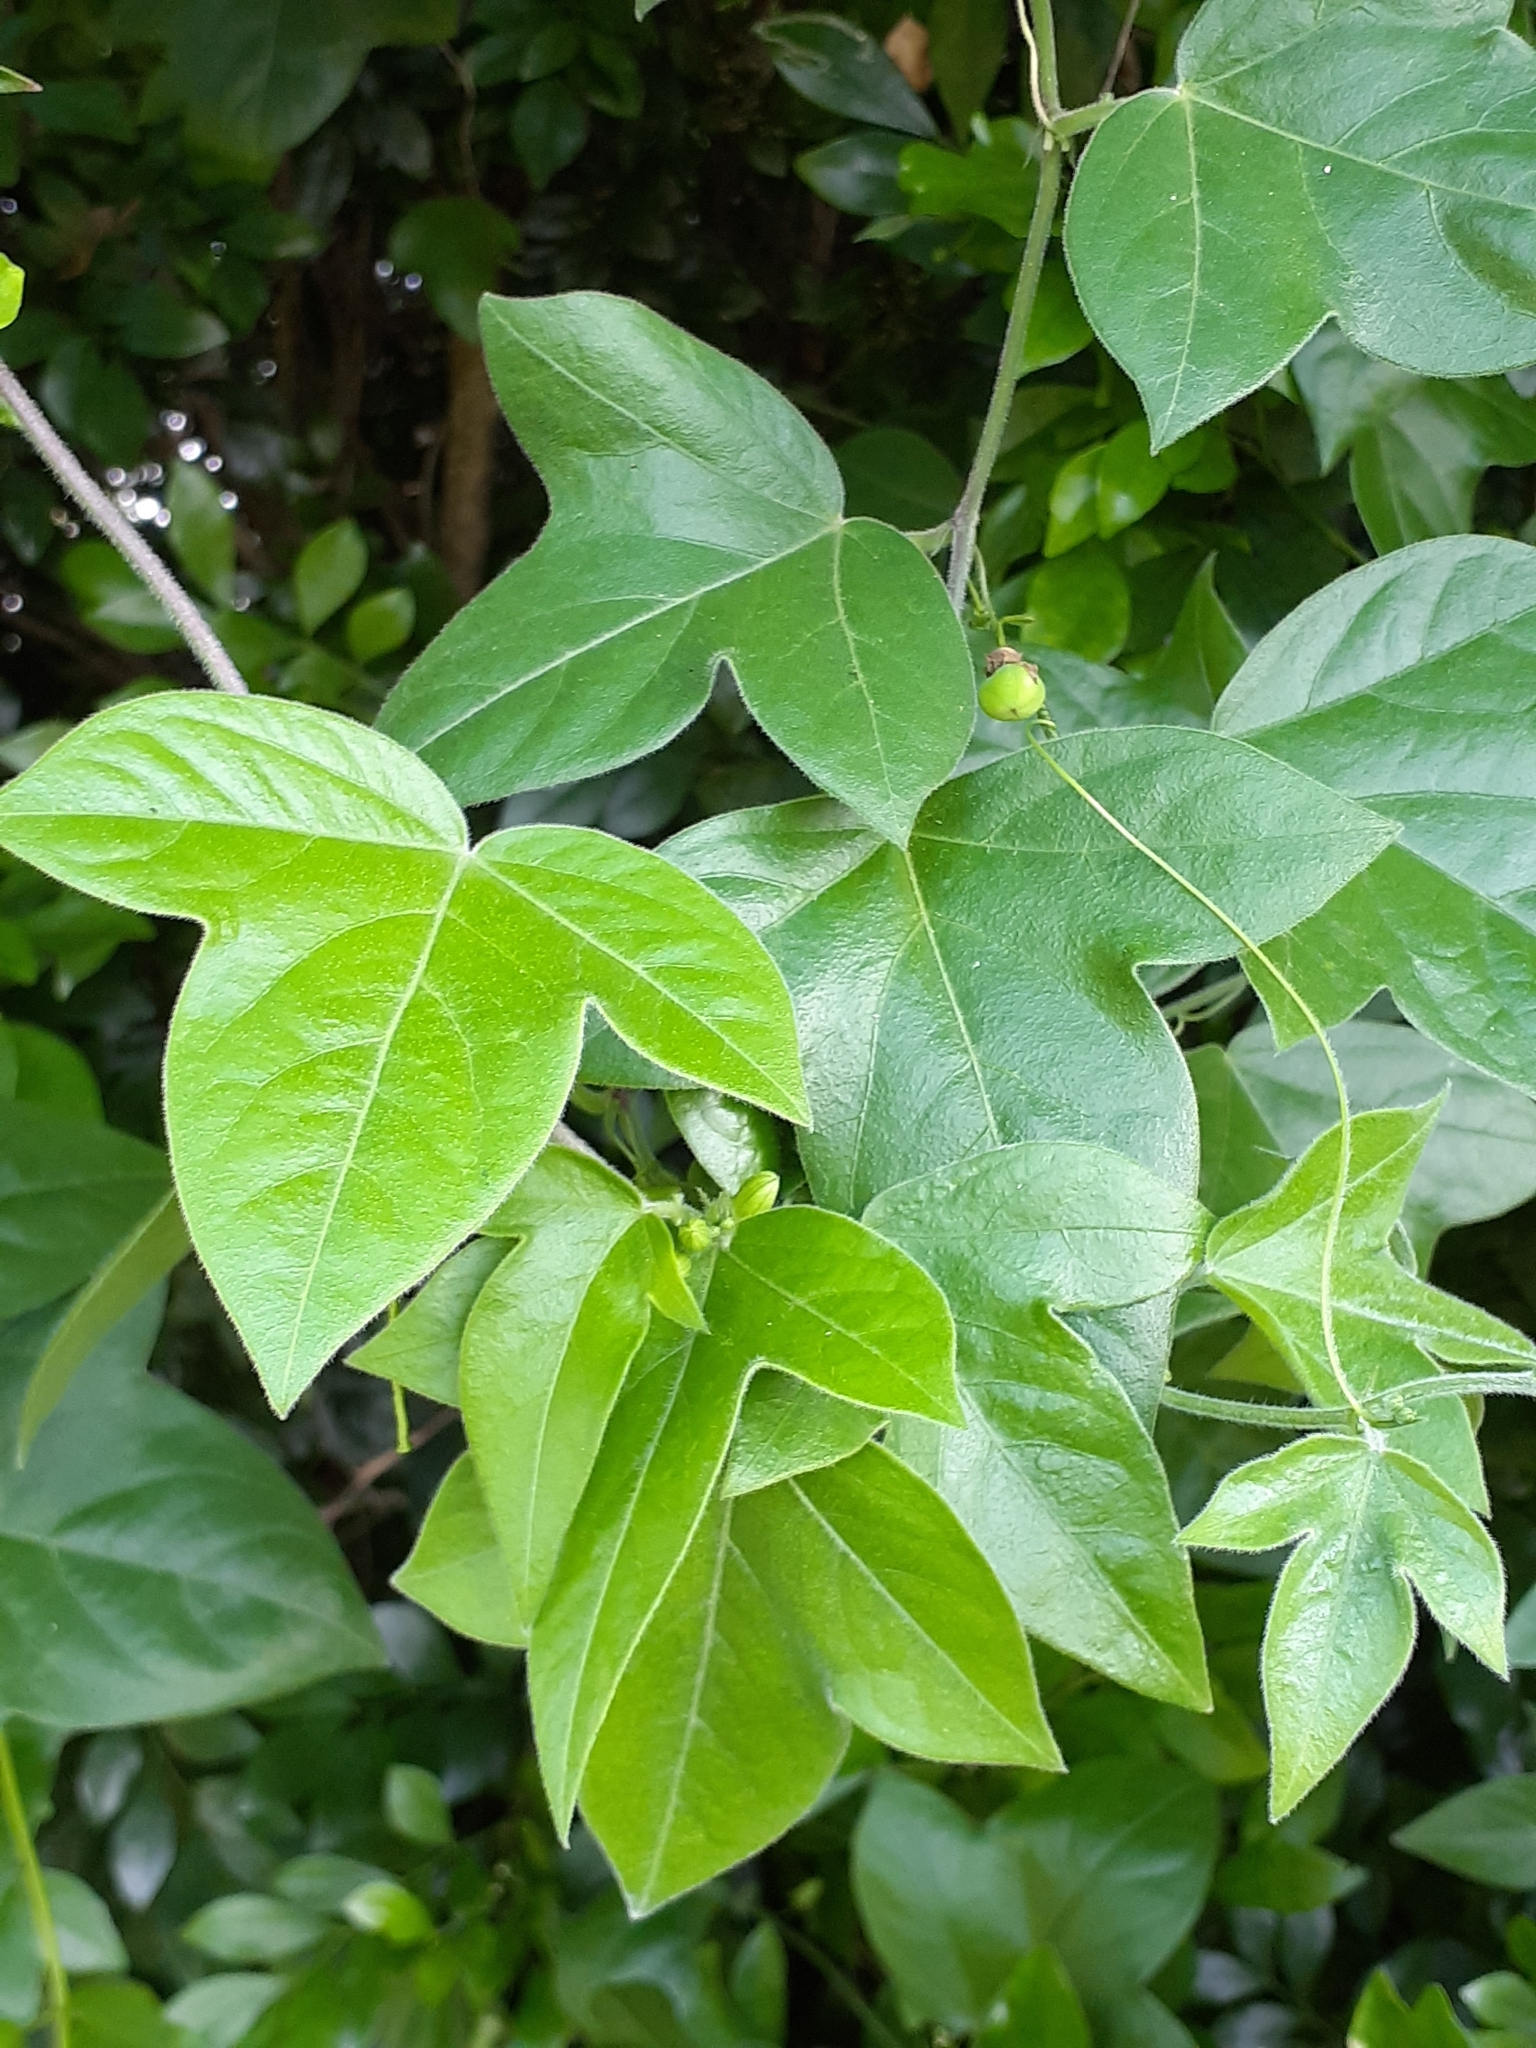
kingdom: Plantae
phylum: Tracheophyta
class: Magnoliopsida
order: Malpighiales
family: Passifloraceae
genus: Passiflora
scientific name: Passiflora suberosa
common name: Wild passionfruit
